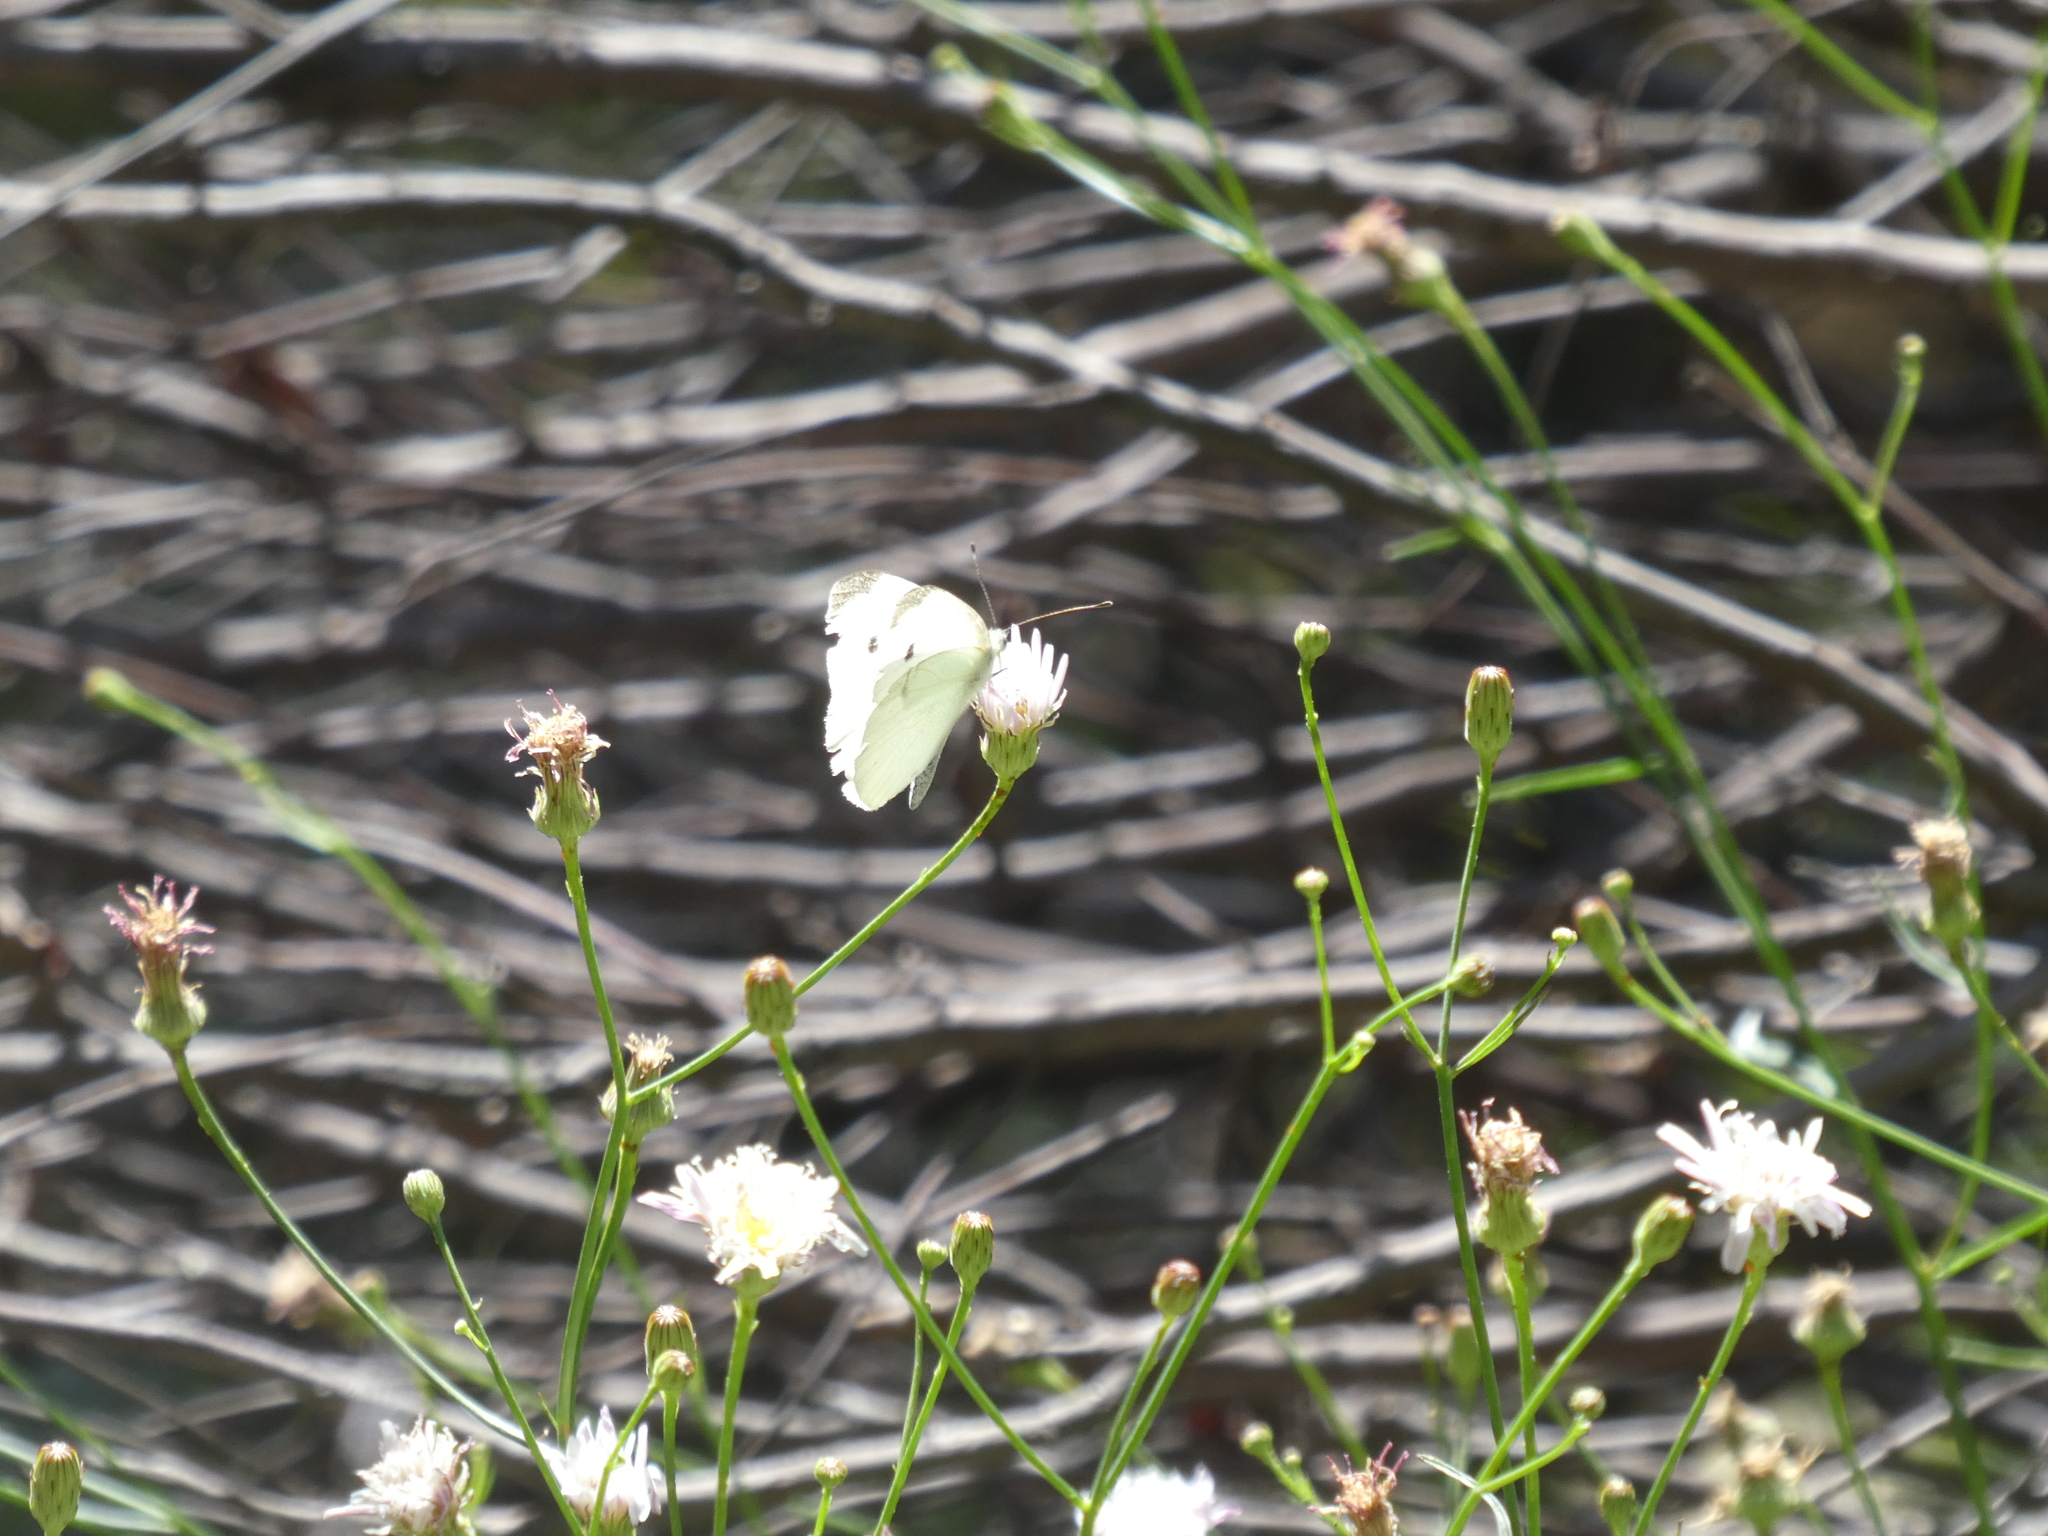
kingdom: Animalia
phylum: Arthropoda
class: Insecta
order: Lepidoptera
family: Pieridae
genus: Pieris
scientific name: Pieris rapae
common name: Small white
